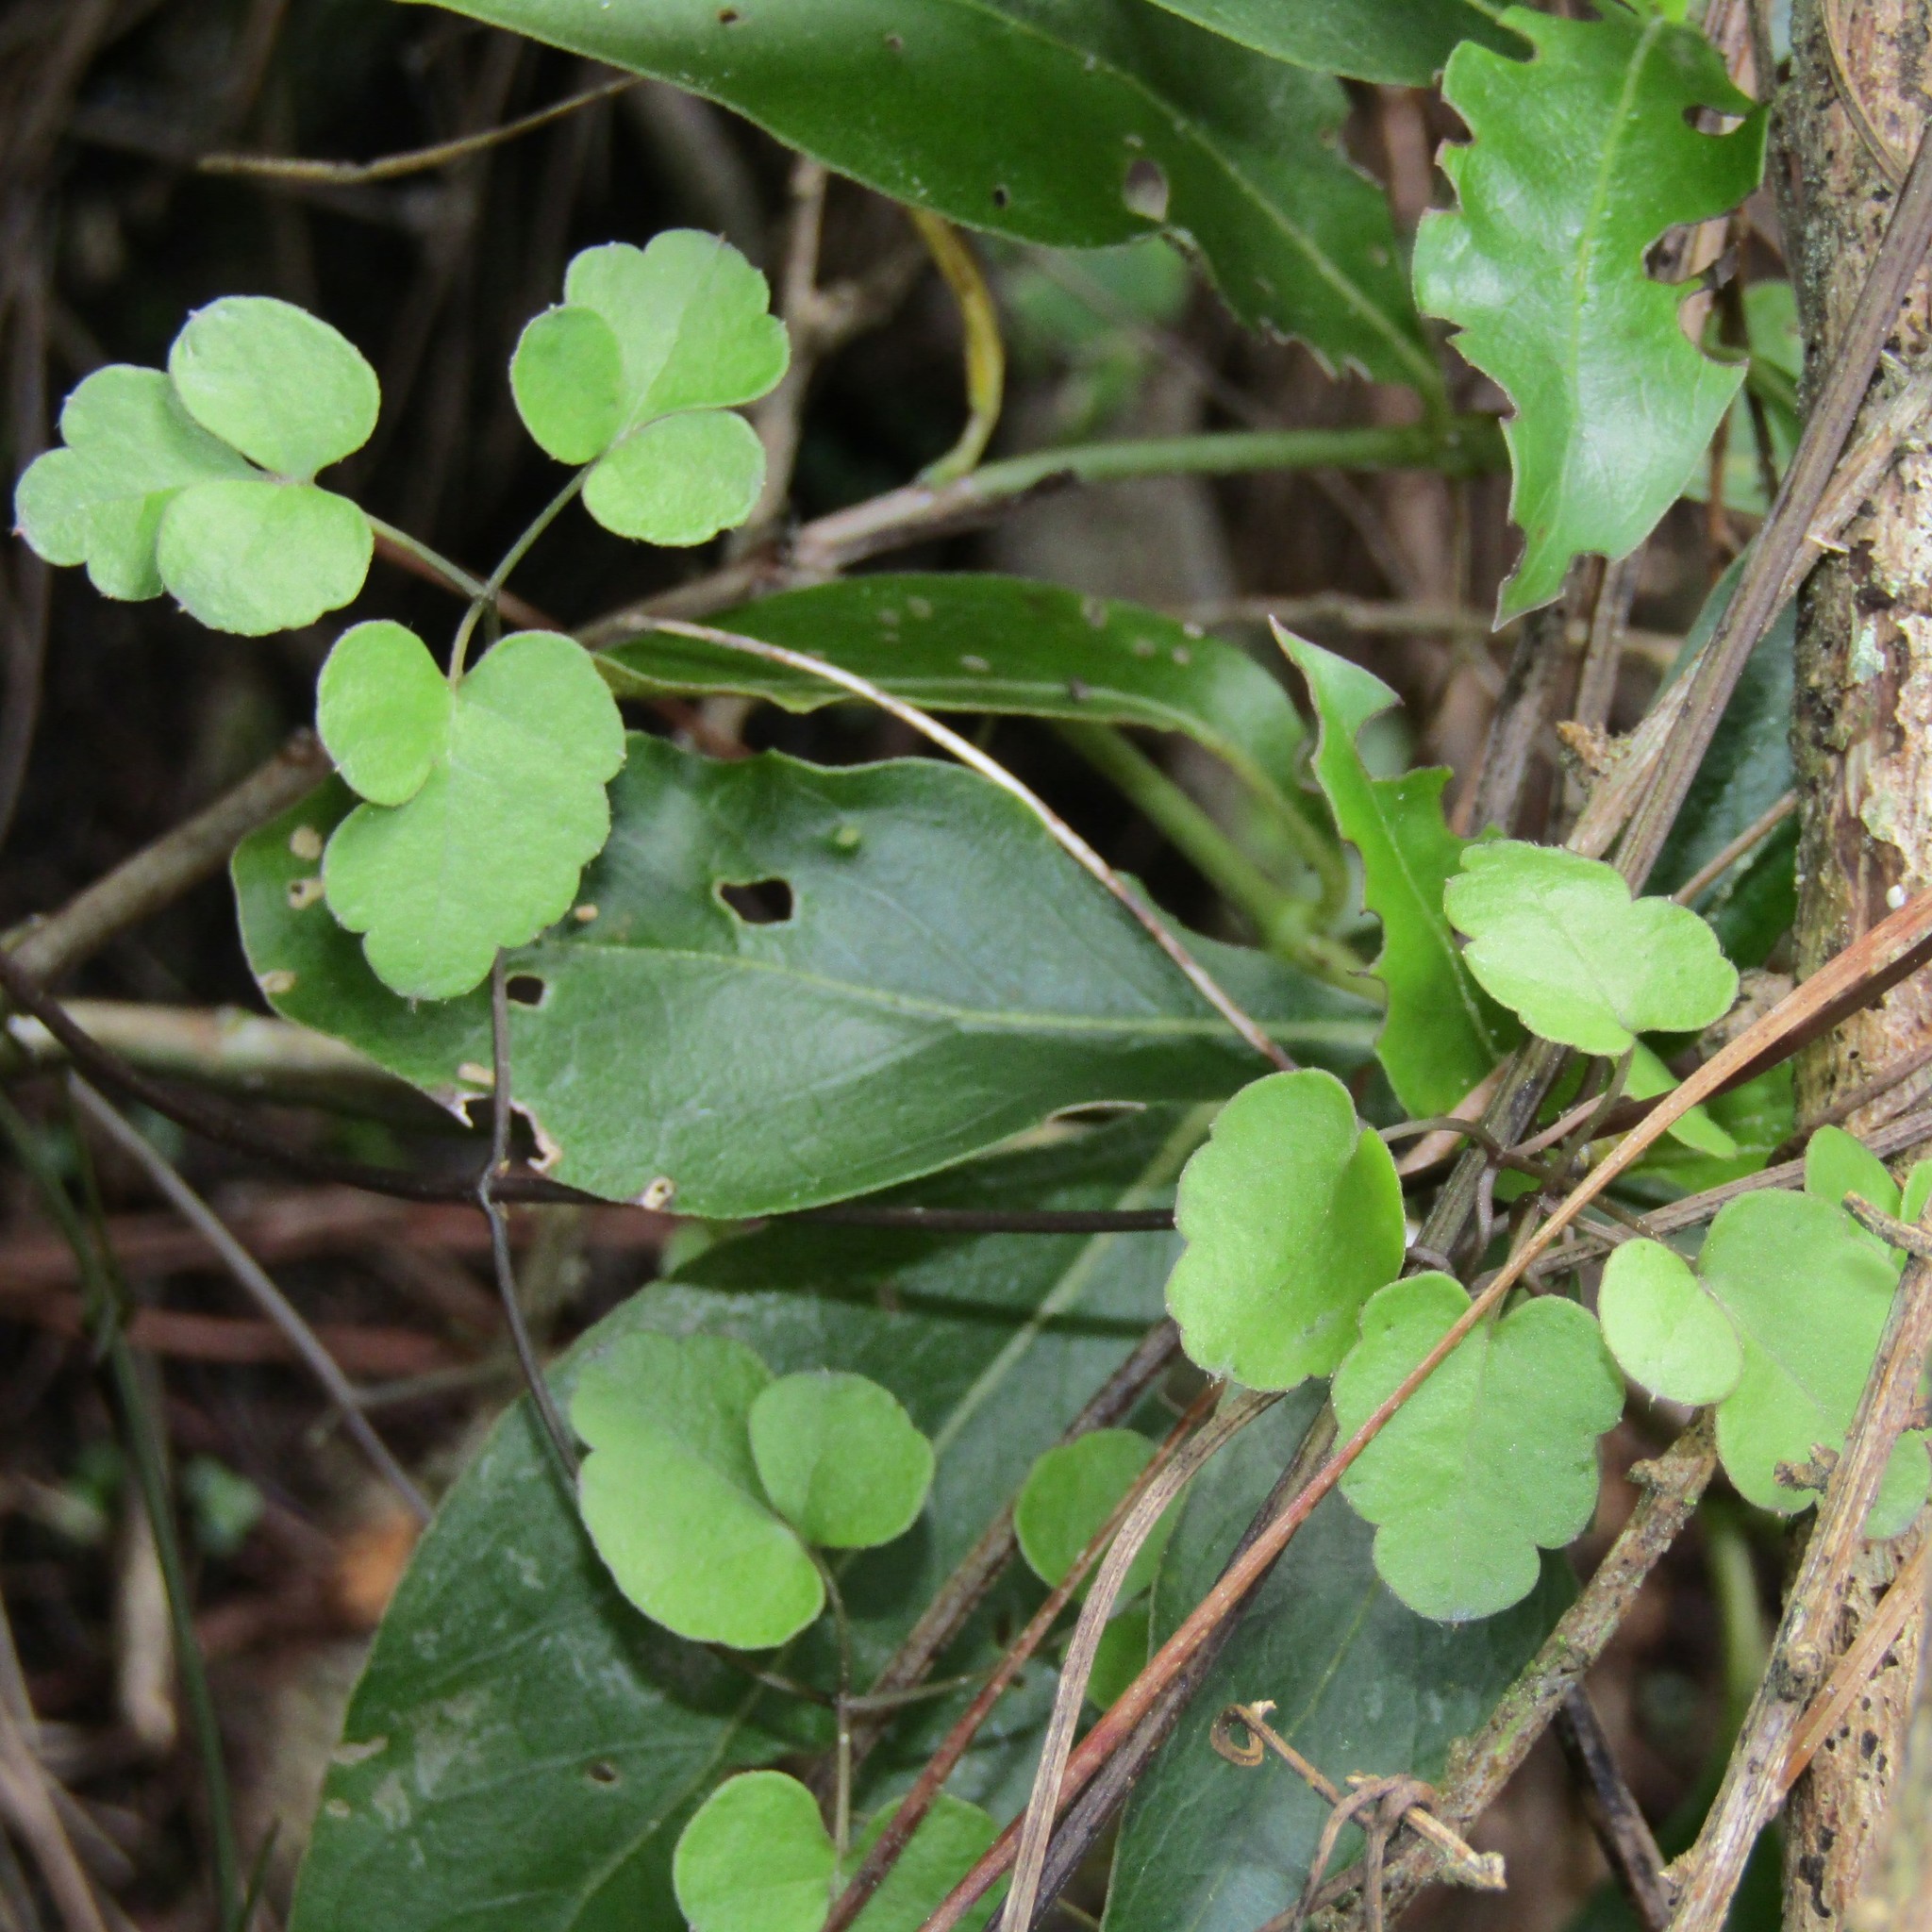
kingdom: Plantae
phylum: Tracheophyta
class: Magnoliopsida
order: Ranunculales
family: Ranunculaceae
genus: Clematis
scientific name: Clematis forsteri
